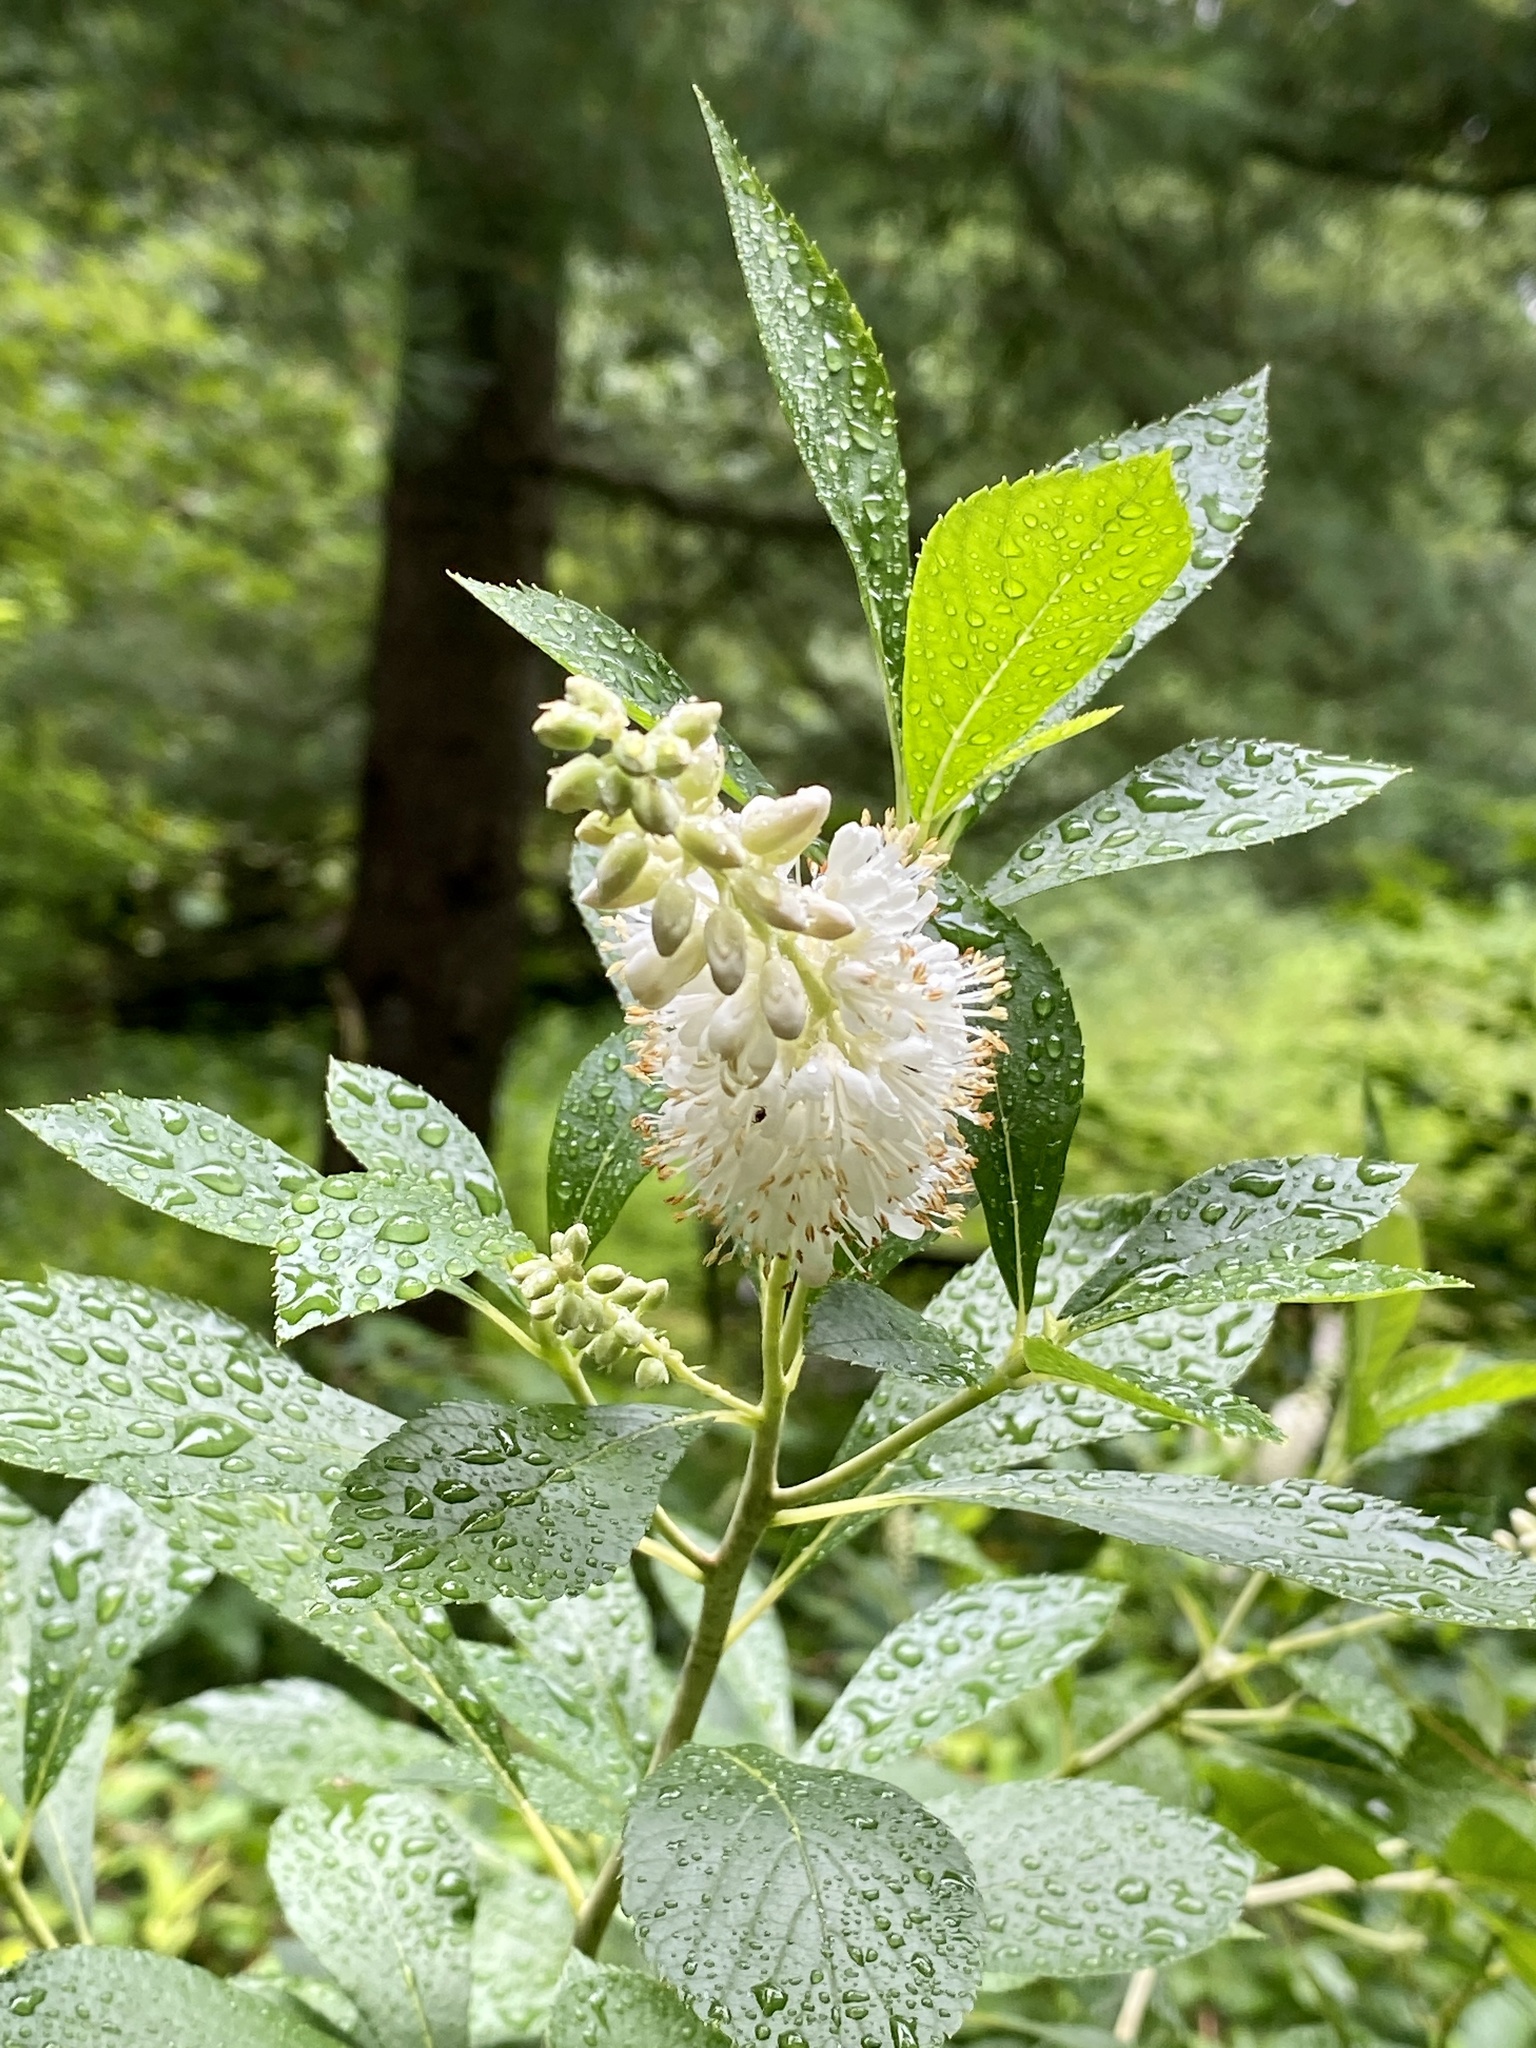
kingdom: Plantae
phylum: Tracheophyta
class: Magnoliopsida
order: Ericales
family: Clethraceae
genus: Clethra
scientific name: Clethra alnifolia
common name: Sweet pepperbush
